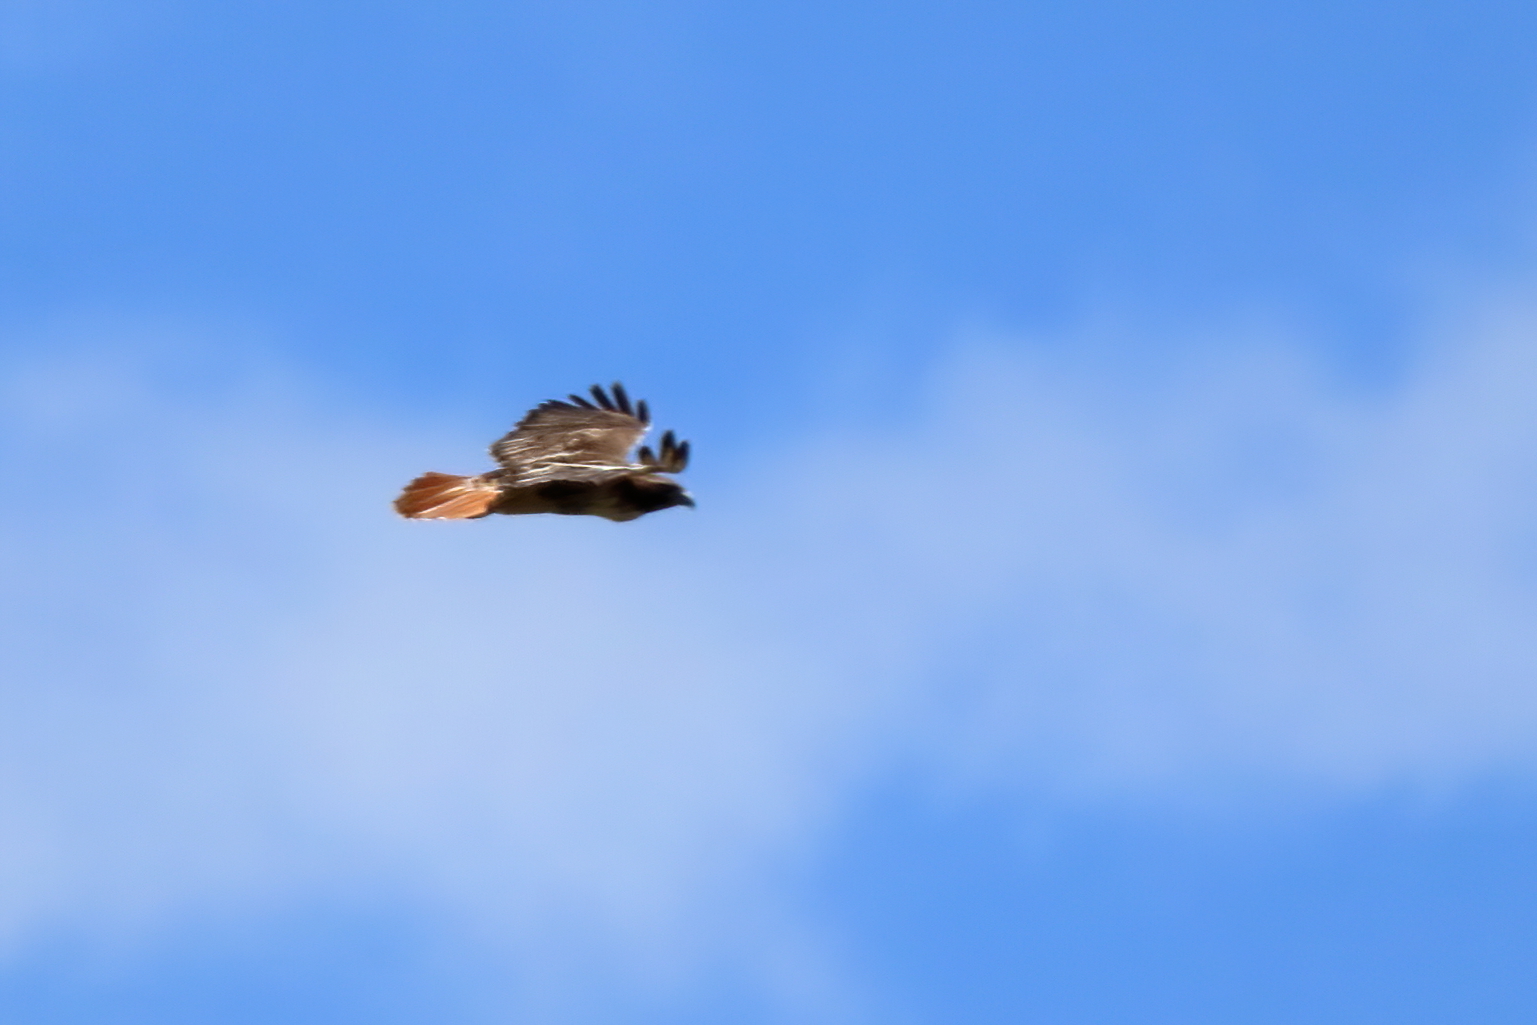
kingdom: Animalia
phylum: Chordata
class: Aves
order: Accipitriformes
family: Accipitridae
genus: Buteo
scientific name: Buteo jamaicensis
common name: Red-tailed hawk
